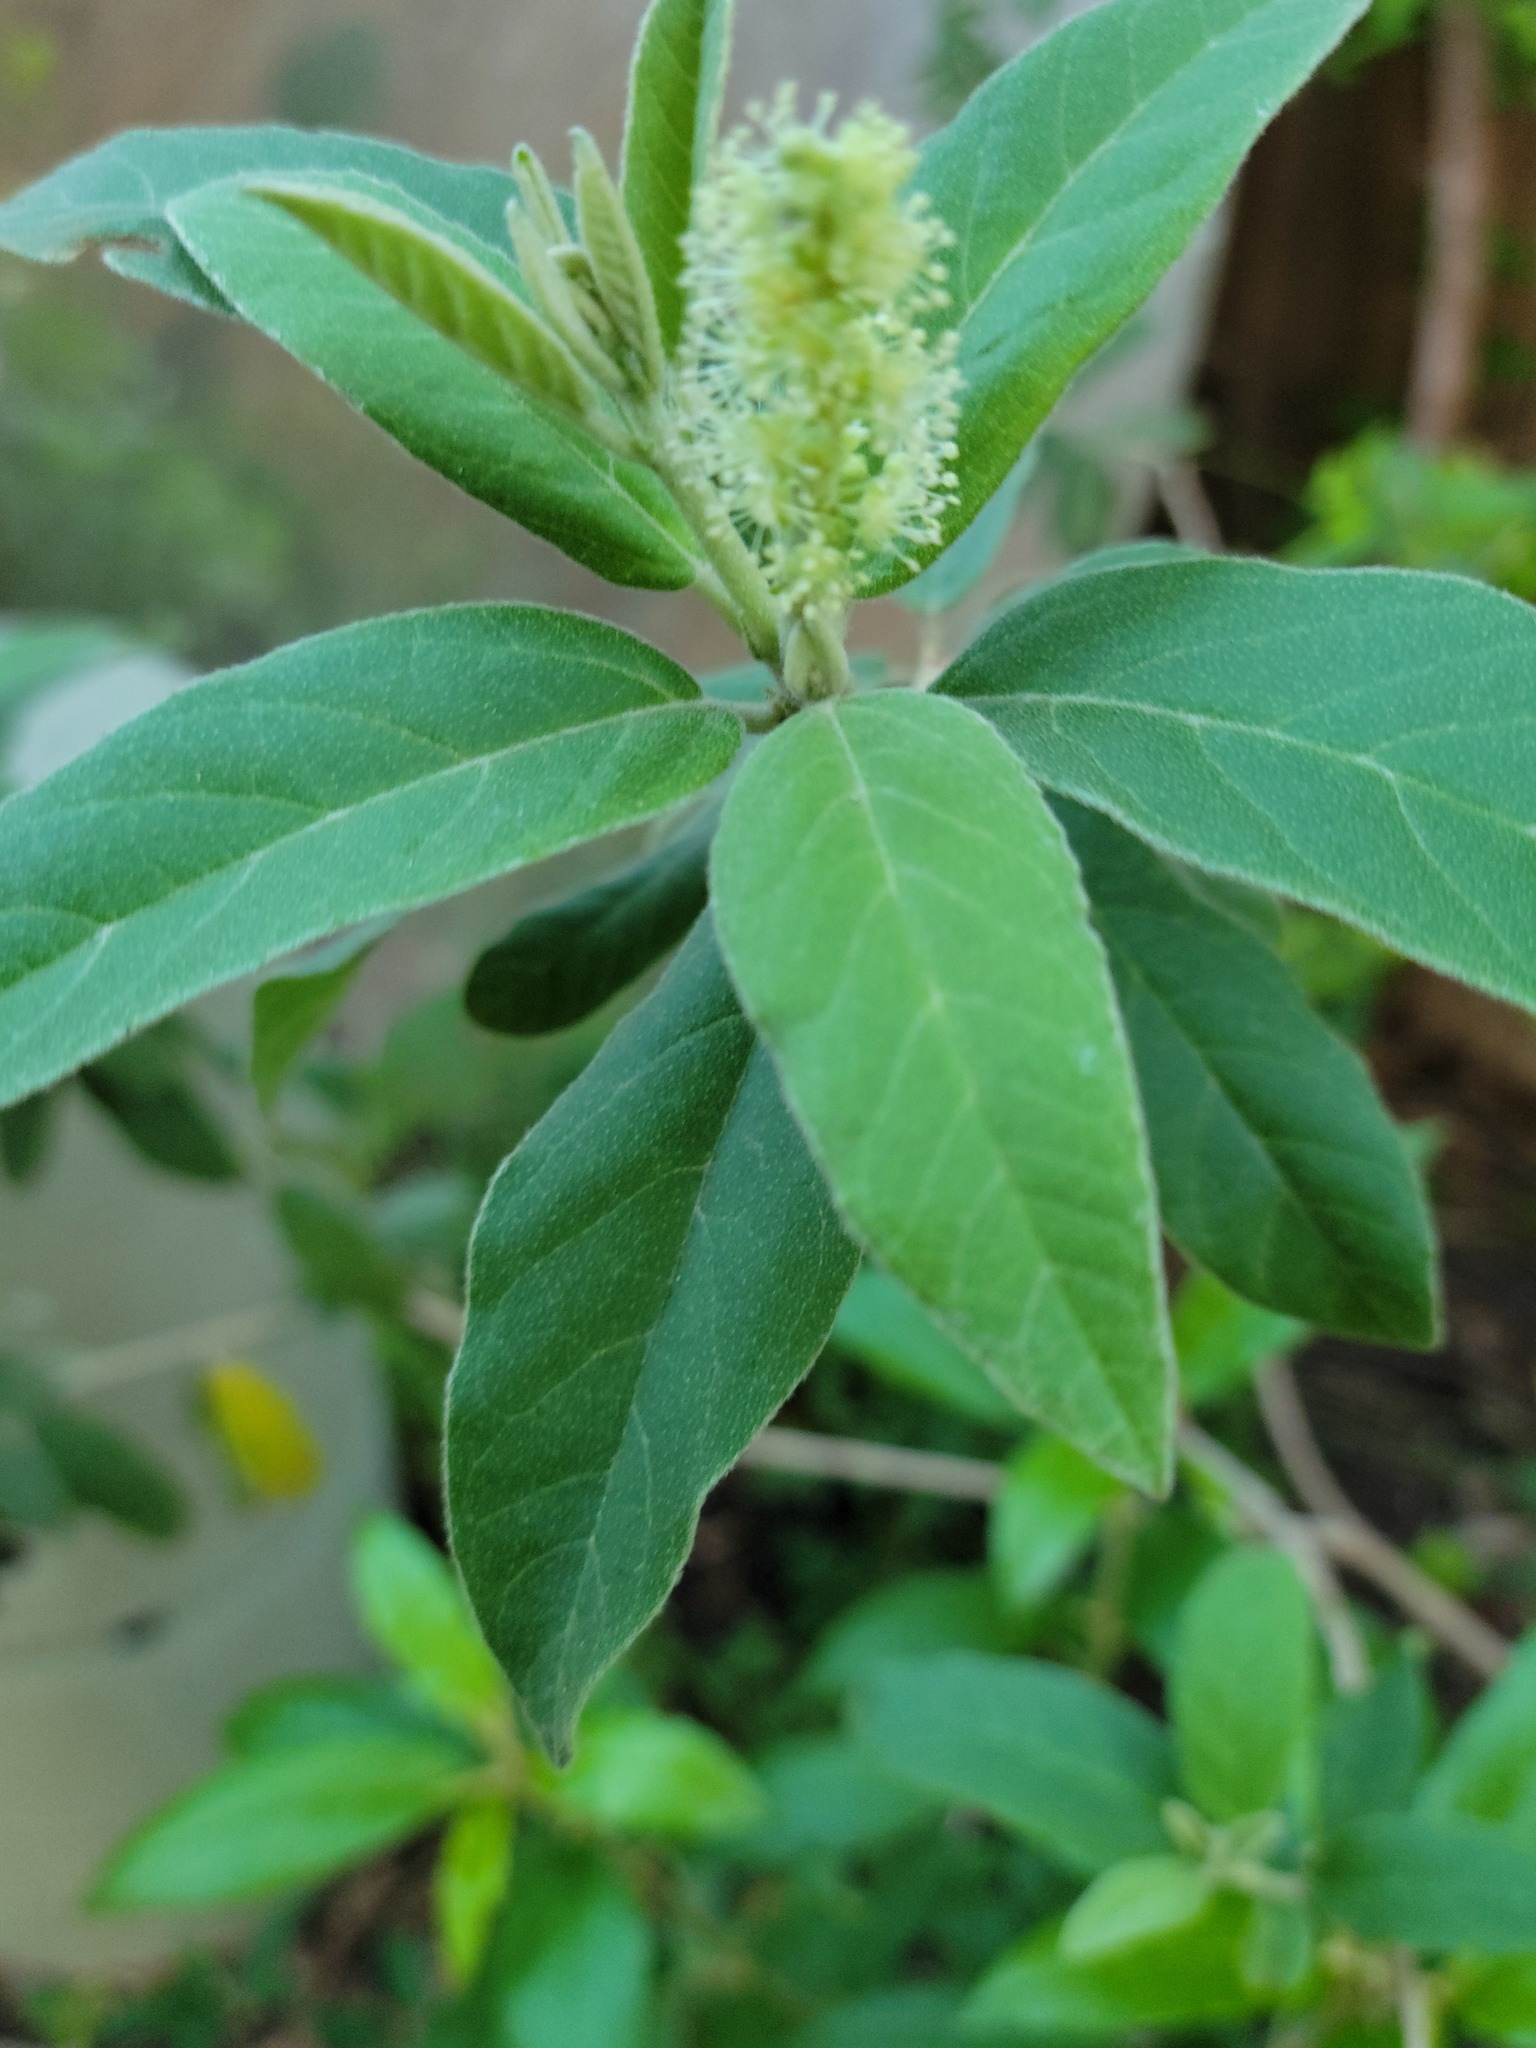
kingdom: Plantae
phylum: Tracheophyta
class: Magnoliopsida
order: Malpighiales
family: Euphorbiaceae
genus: Croton
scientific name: Croton incanus
